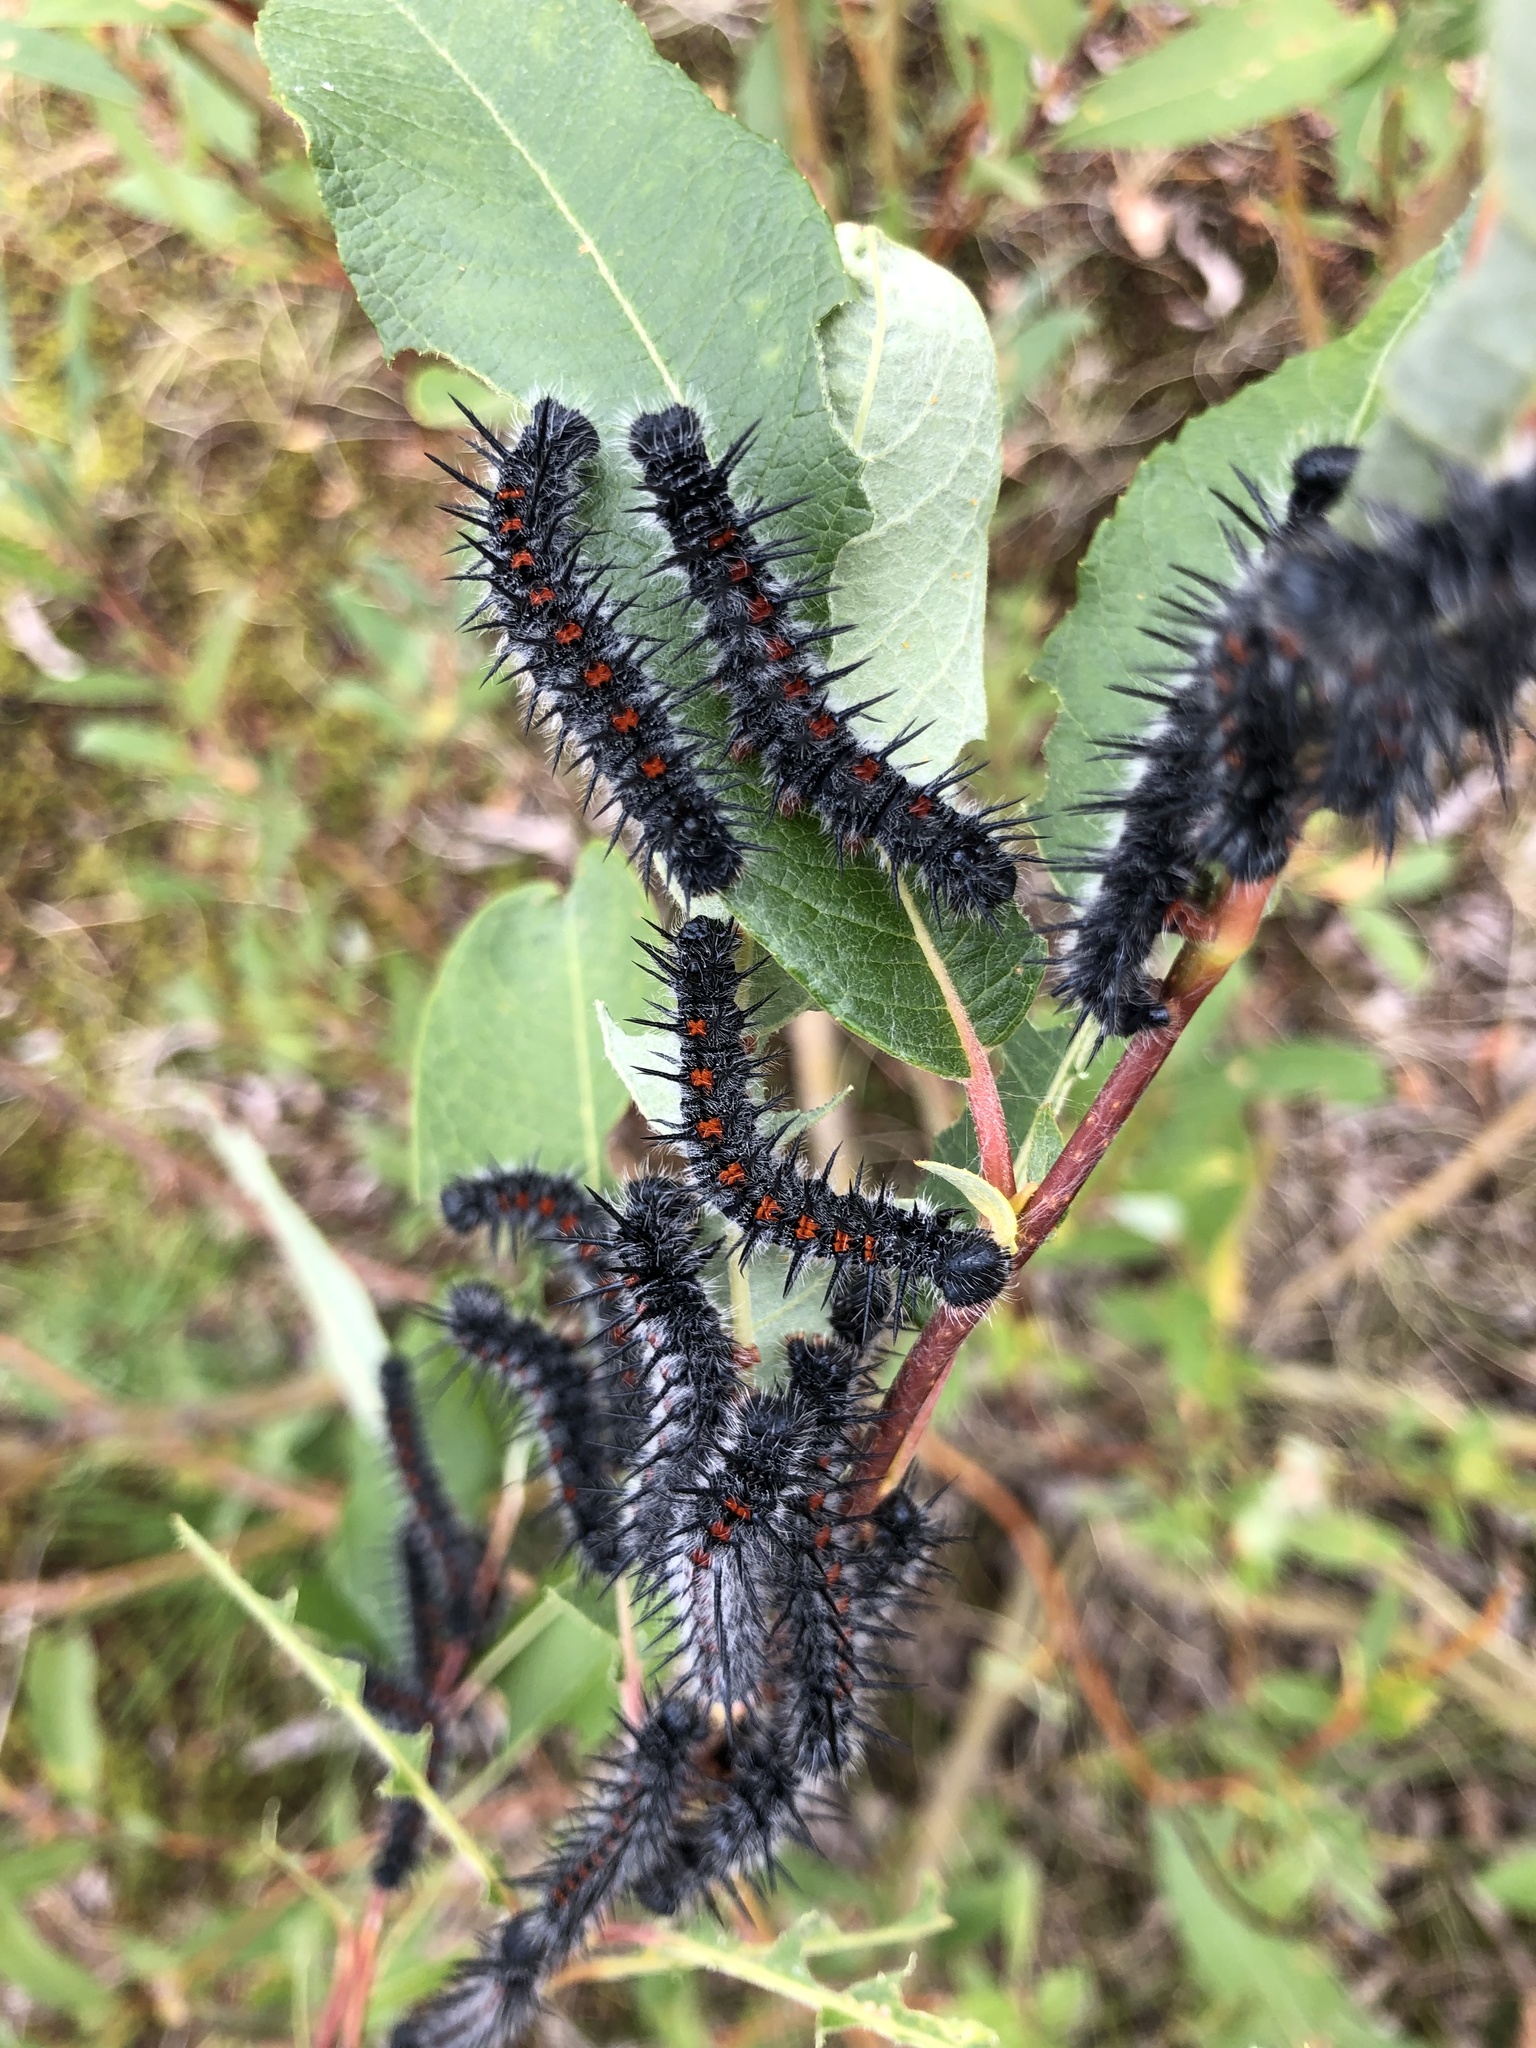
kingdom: Animalia
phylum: Arthropoda
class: Insecta
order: Lepidoptera
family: Nymphalidae
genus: Nymphalis
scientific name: Nymphalis antiopa
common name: Camberwell beauty
